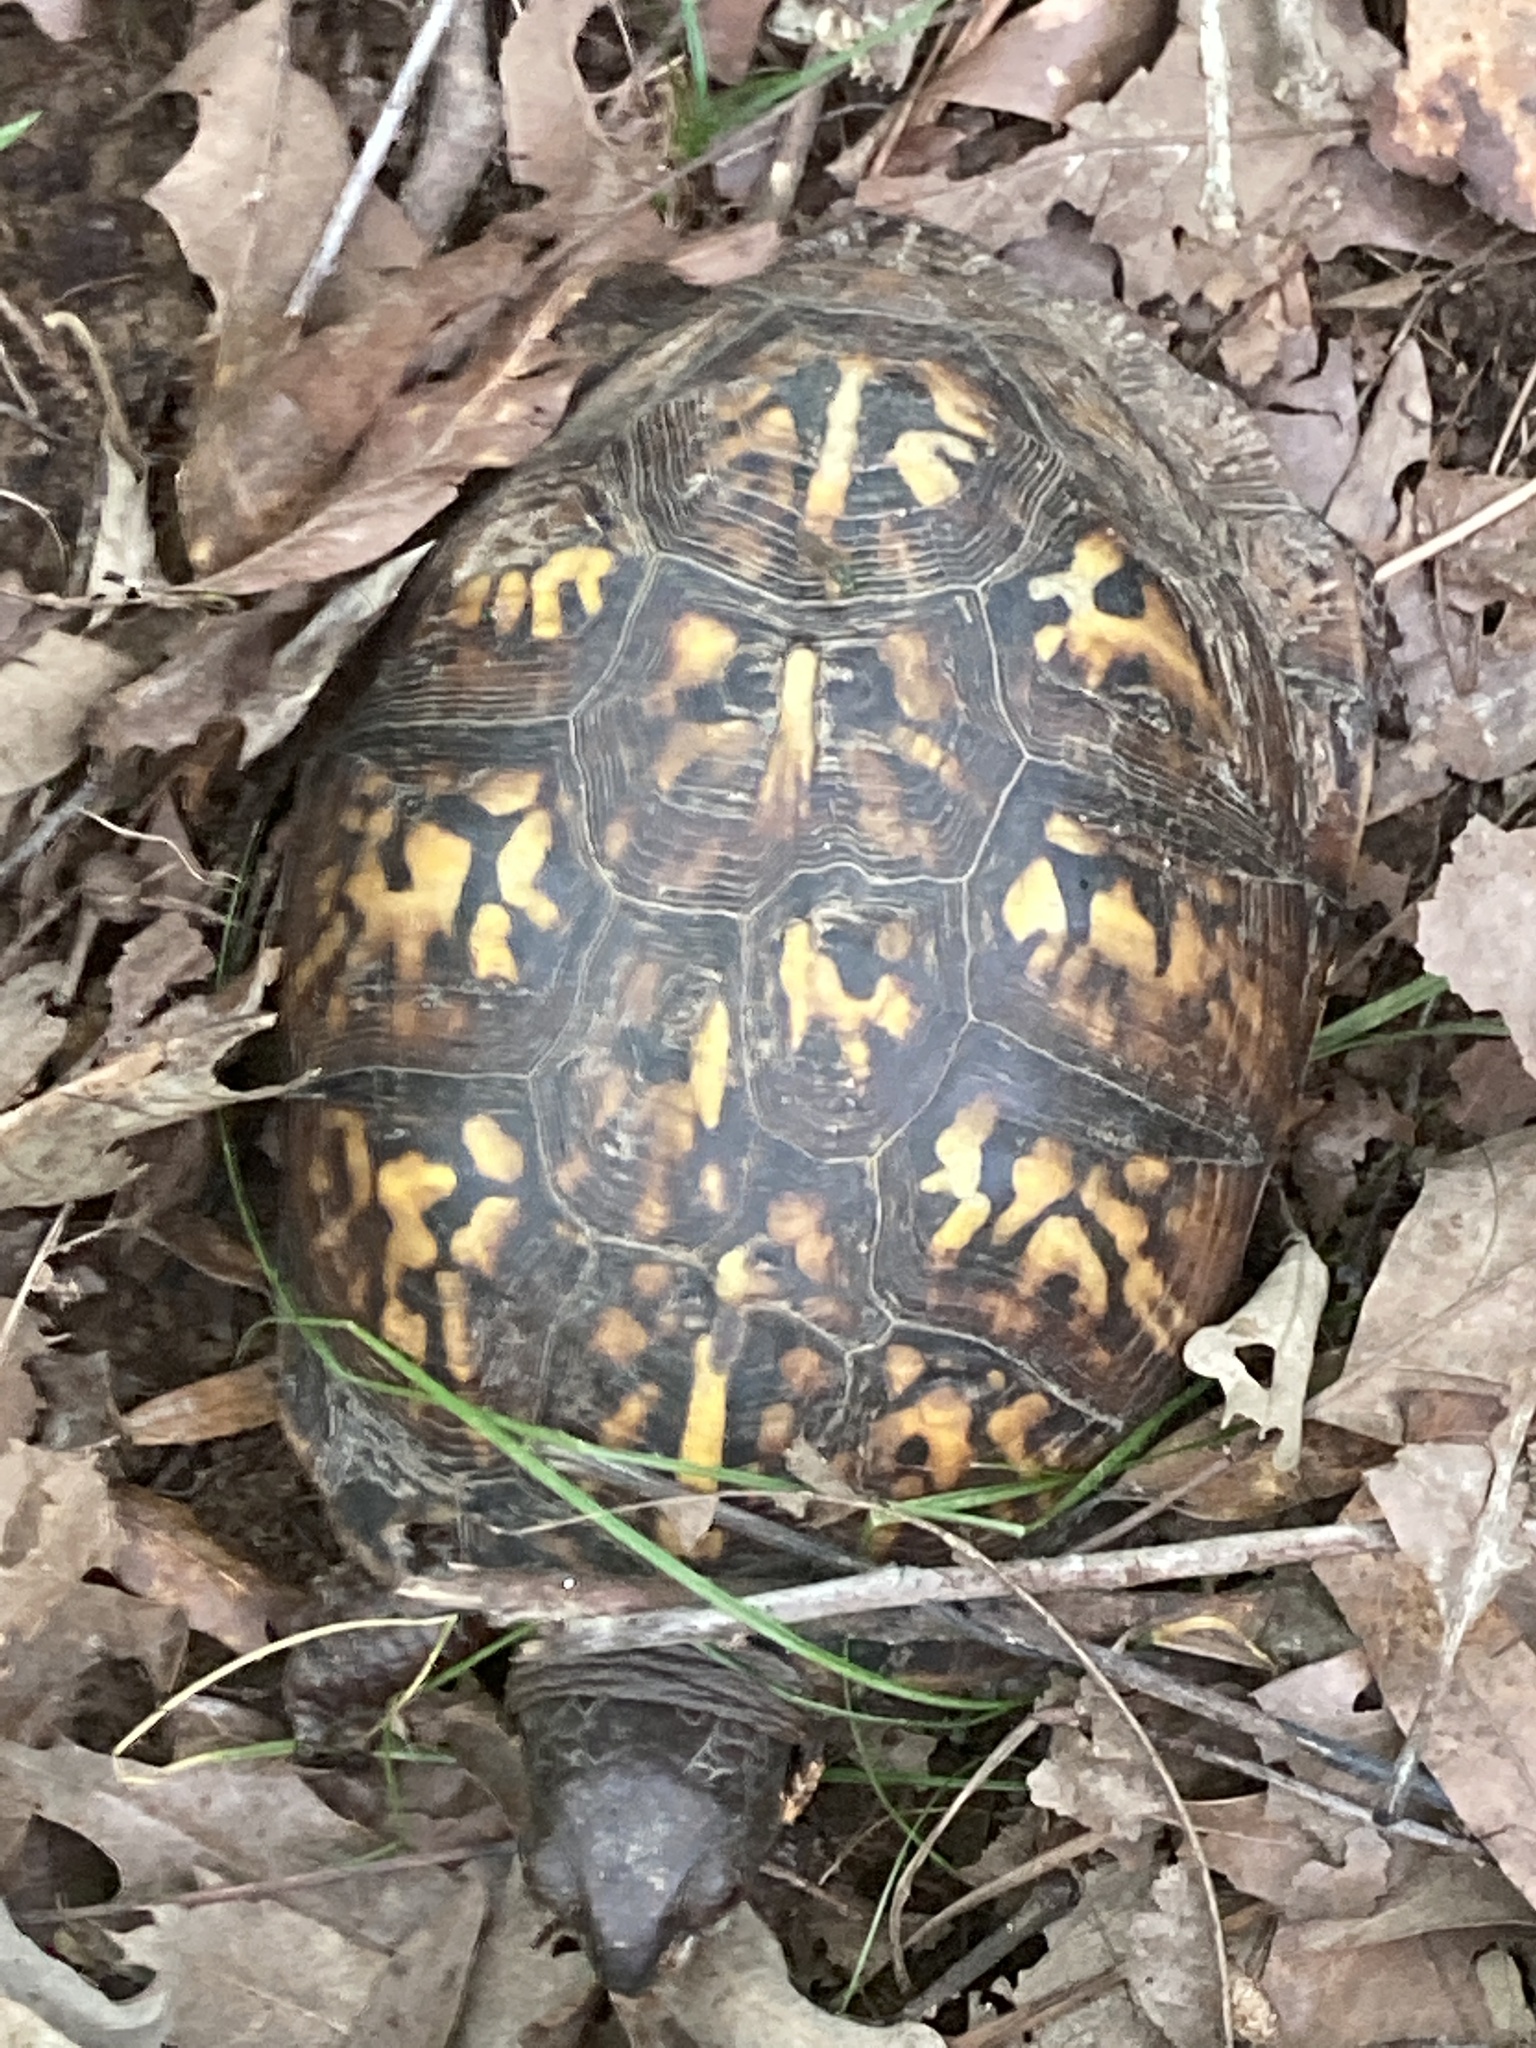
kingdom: Animalia
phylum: Chordata
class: Testudines
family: Emydidae
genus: Terrapene
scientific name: Terrapene carolina
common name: Common box turtle
